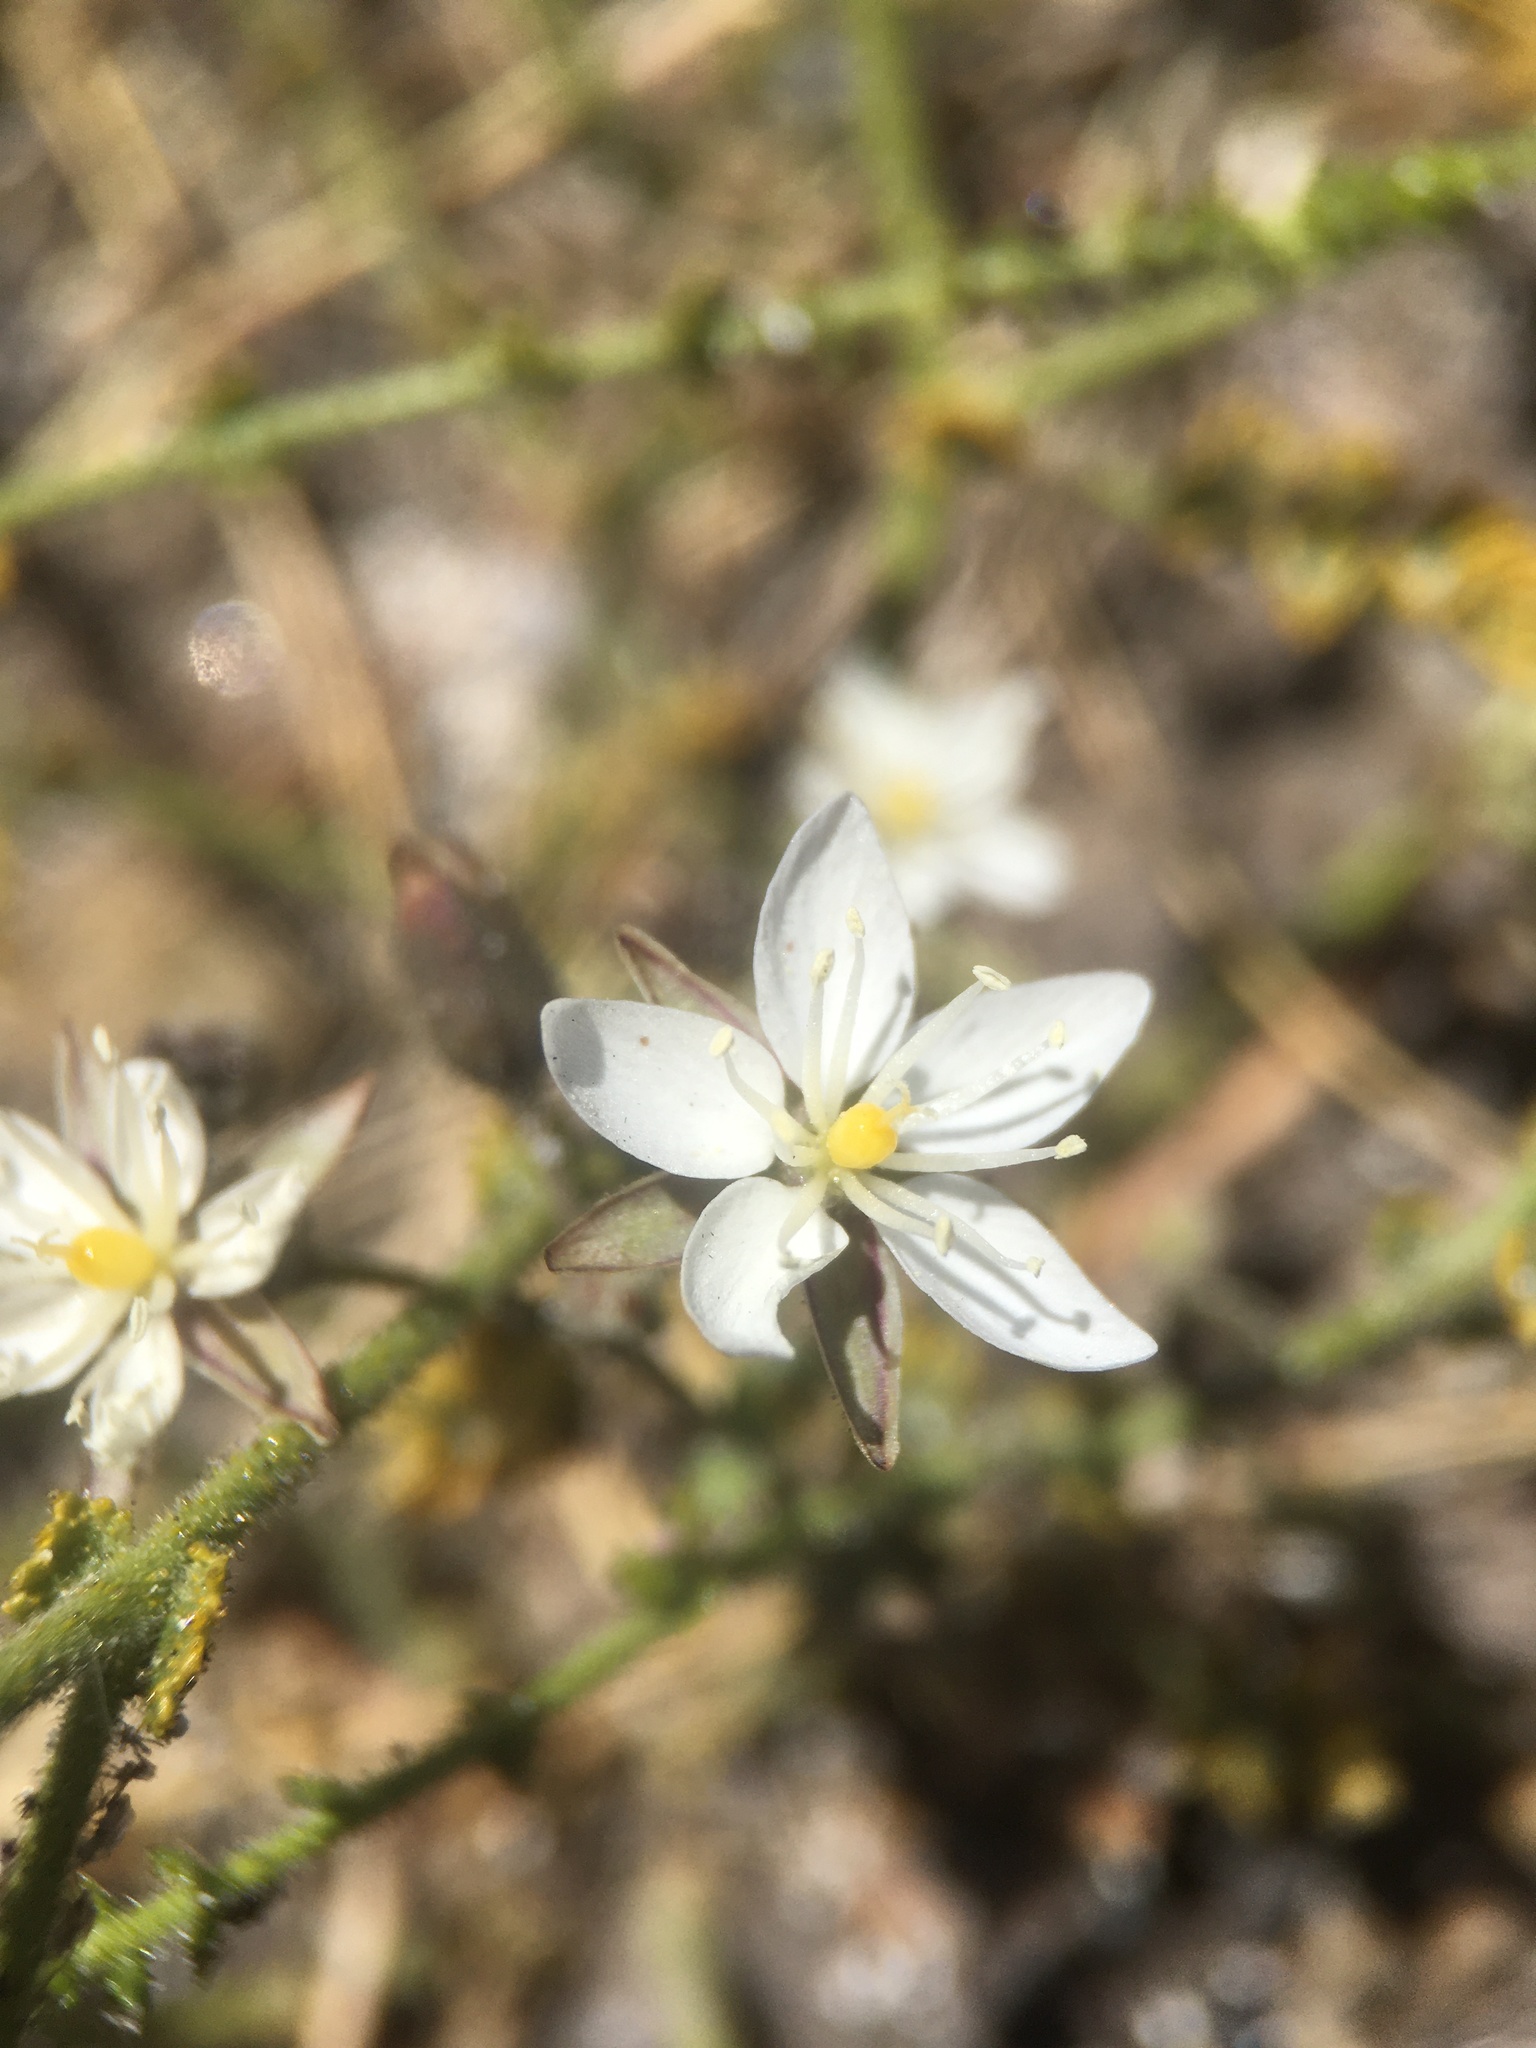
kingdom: Plantae
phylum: Tracheophyta
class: Magnoliopsida
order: Caryophyllales
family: Caryophyllaceae
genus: Spergularia
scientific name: Spergularia fasciculata
